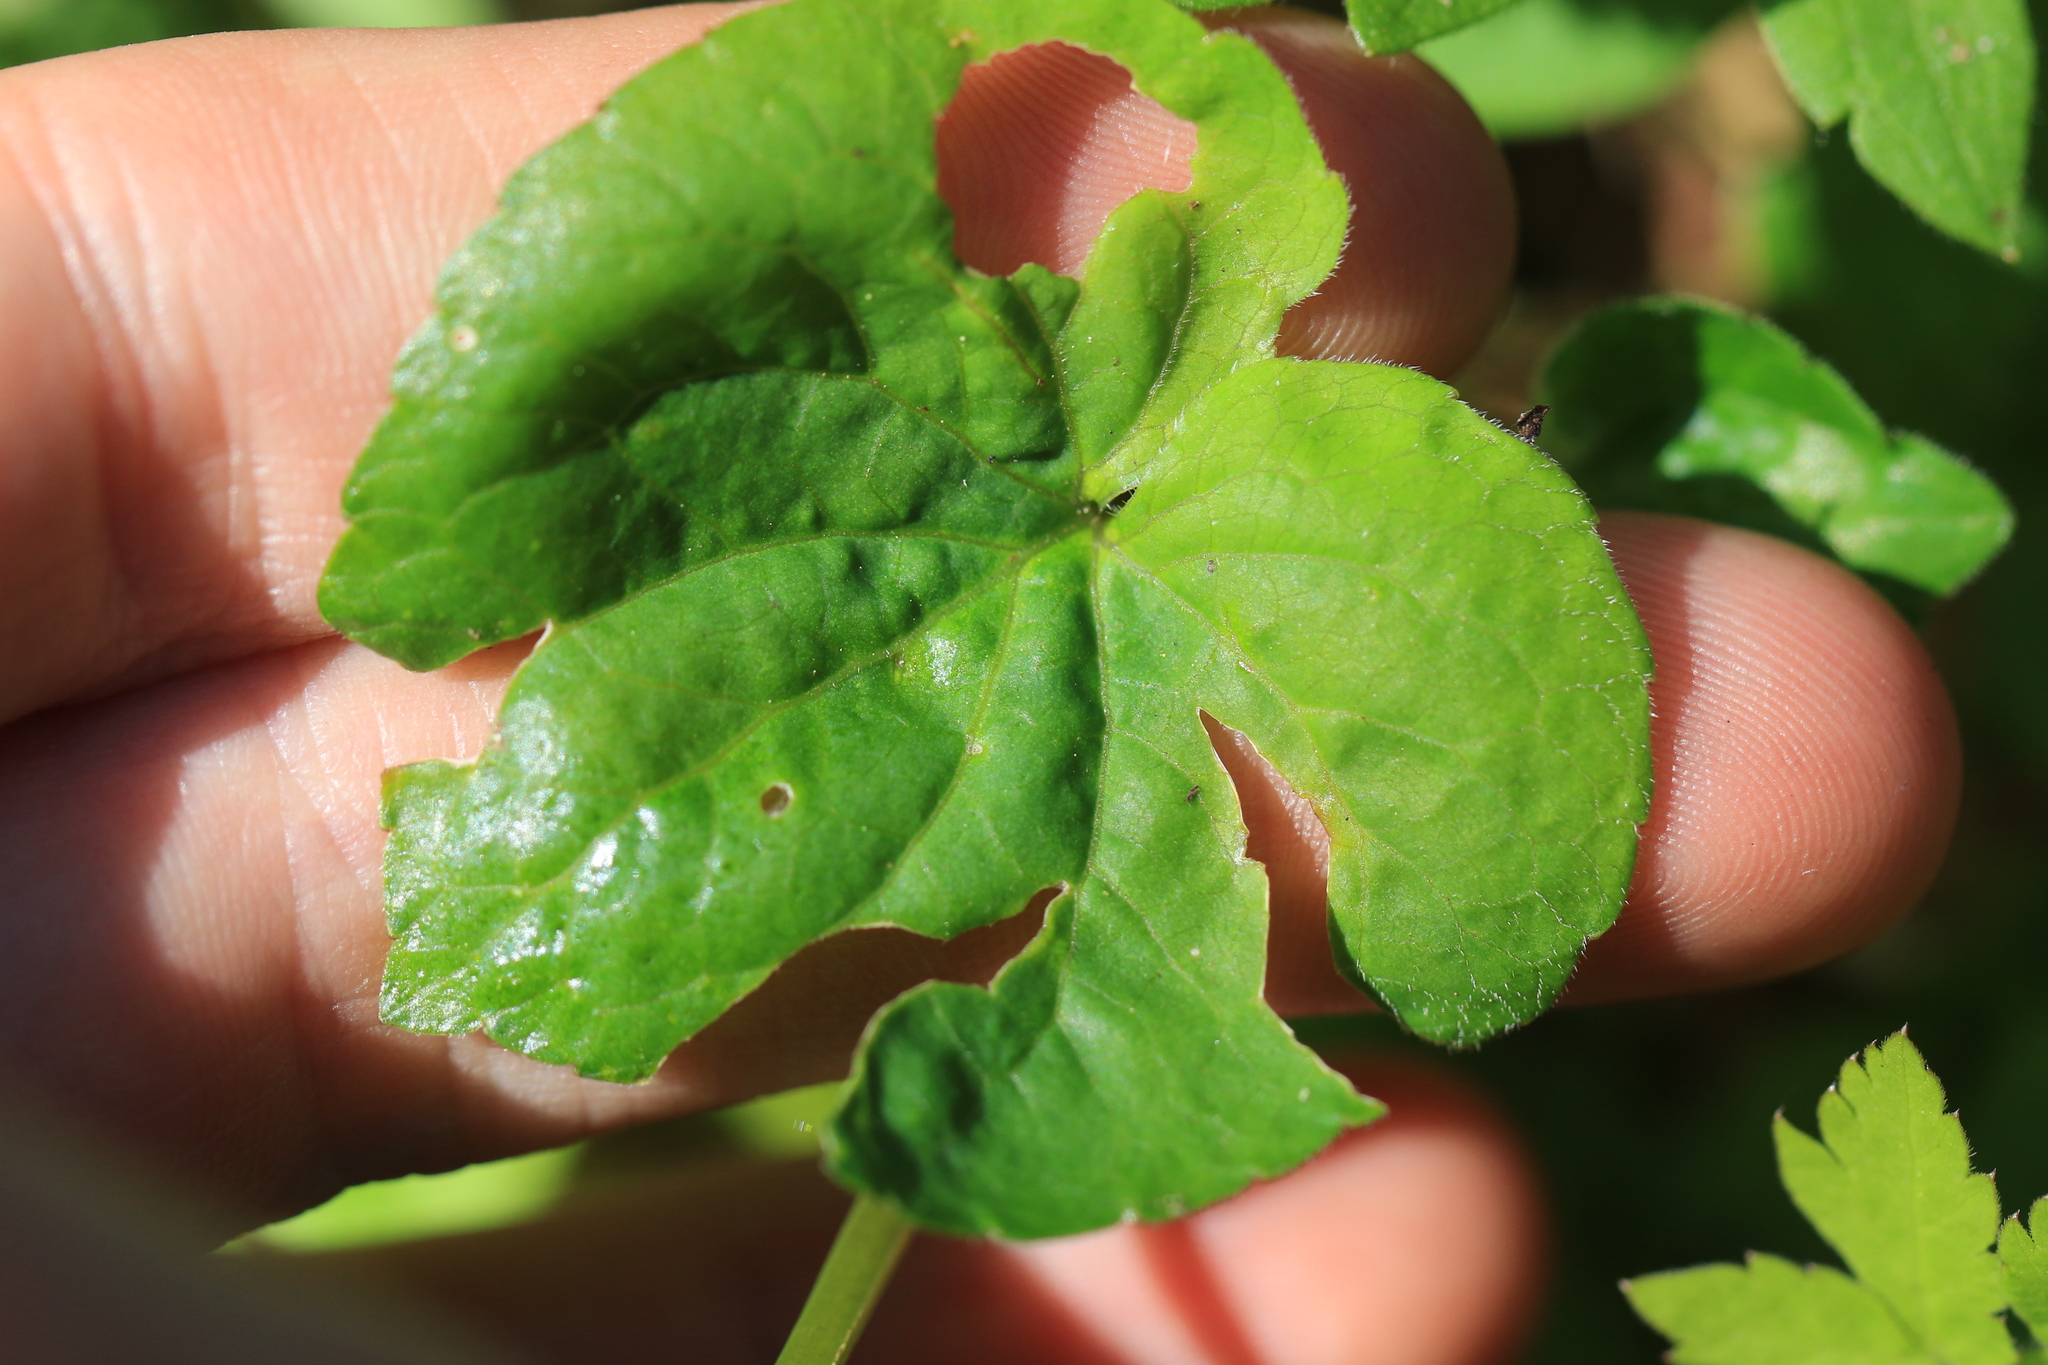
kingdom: Plantae
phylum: Tracheophyta
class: Magnoliopsida
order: Malpighiales
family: Violaceae
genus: Viola
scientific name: Viola glabella
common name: Stream violet
